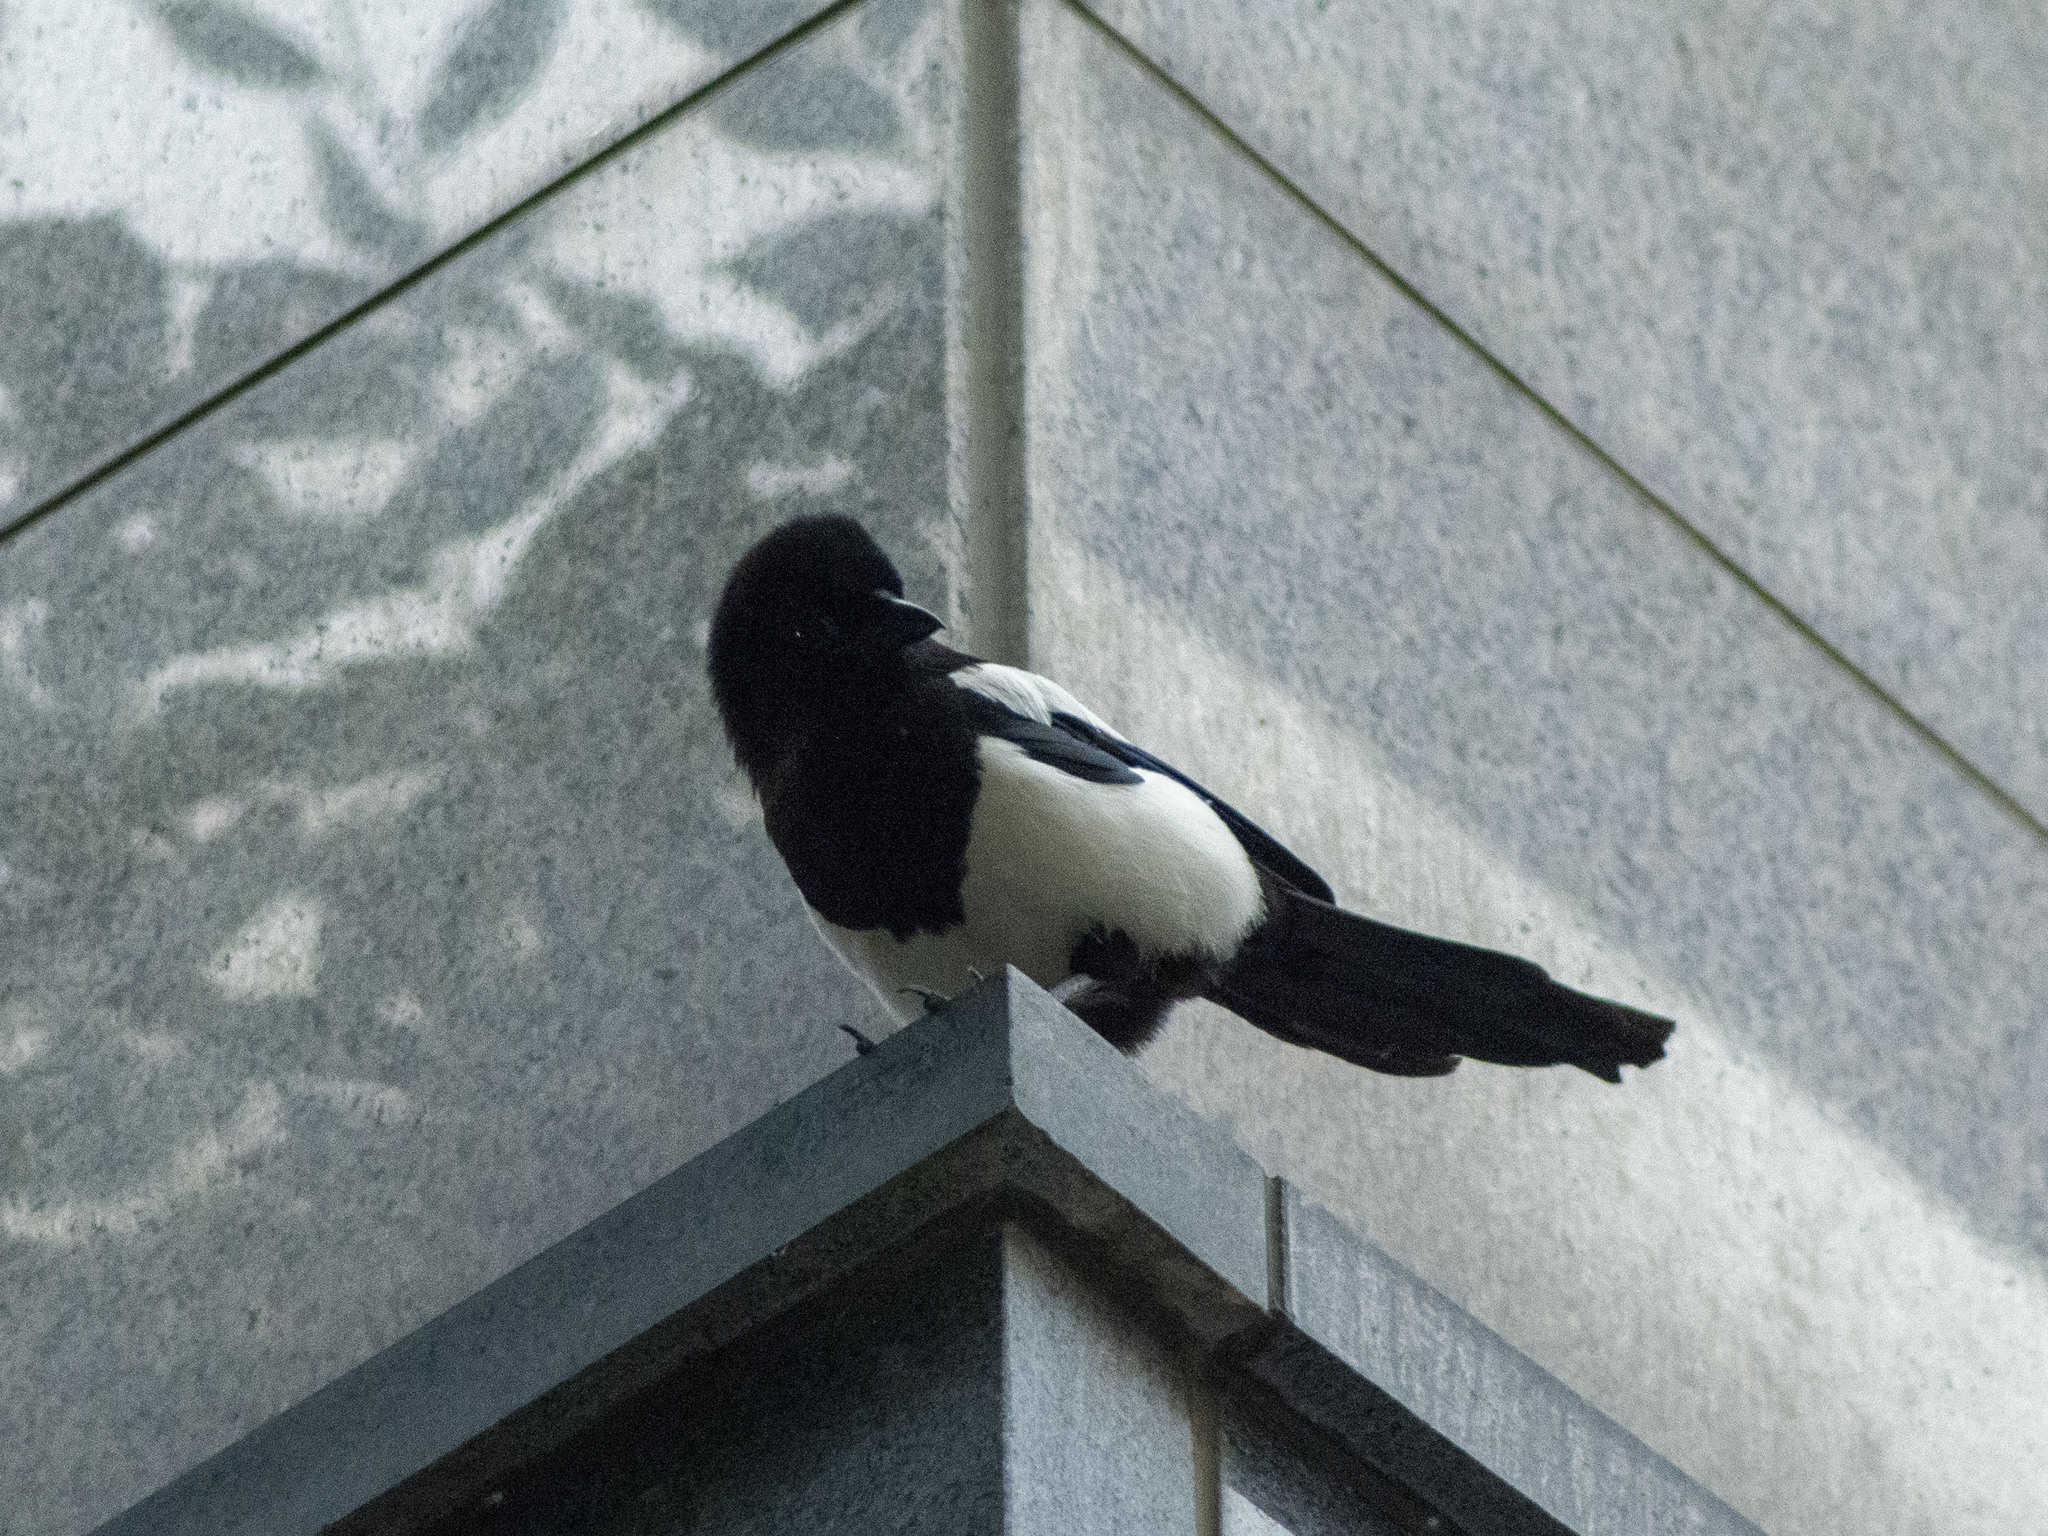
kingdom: Animalia
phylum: Chordata
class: Aves
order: Passeriformes
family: Corvidae
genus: Pica
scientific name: Pica serica
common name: Oriental magpie
